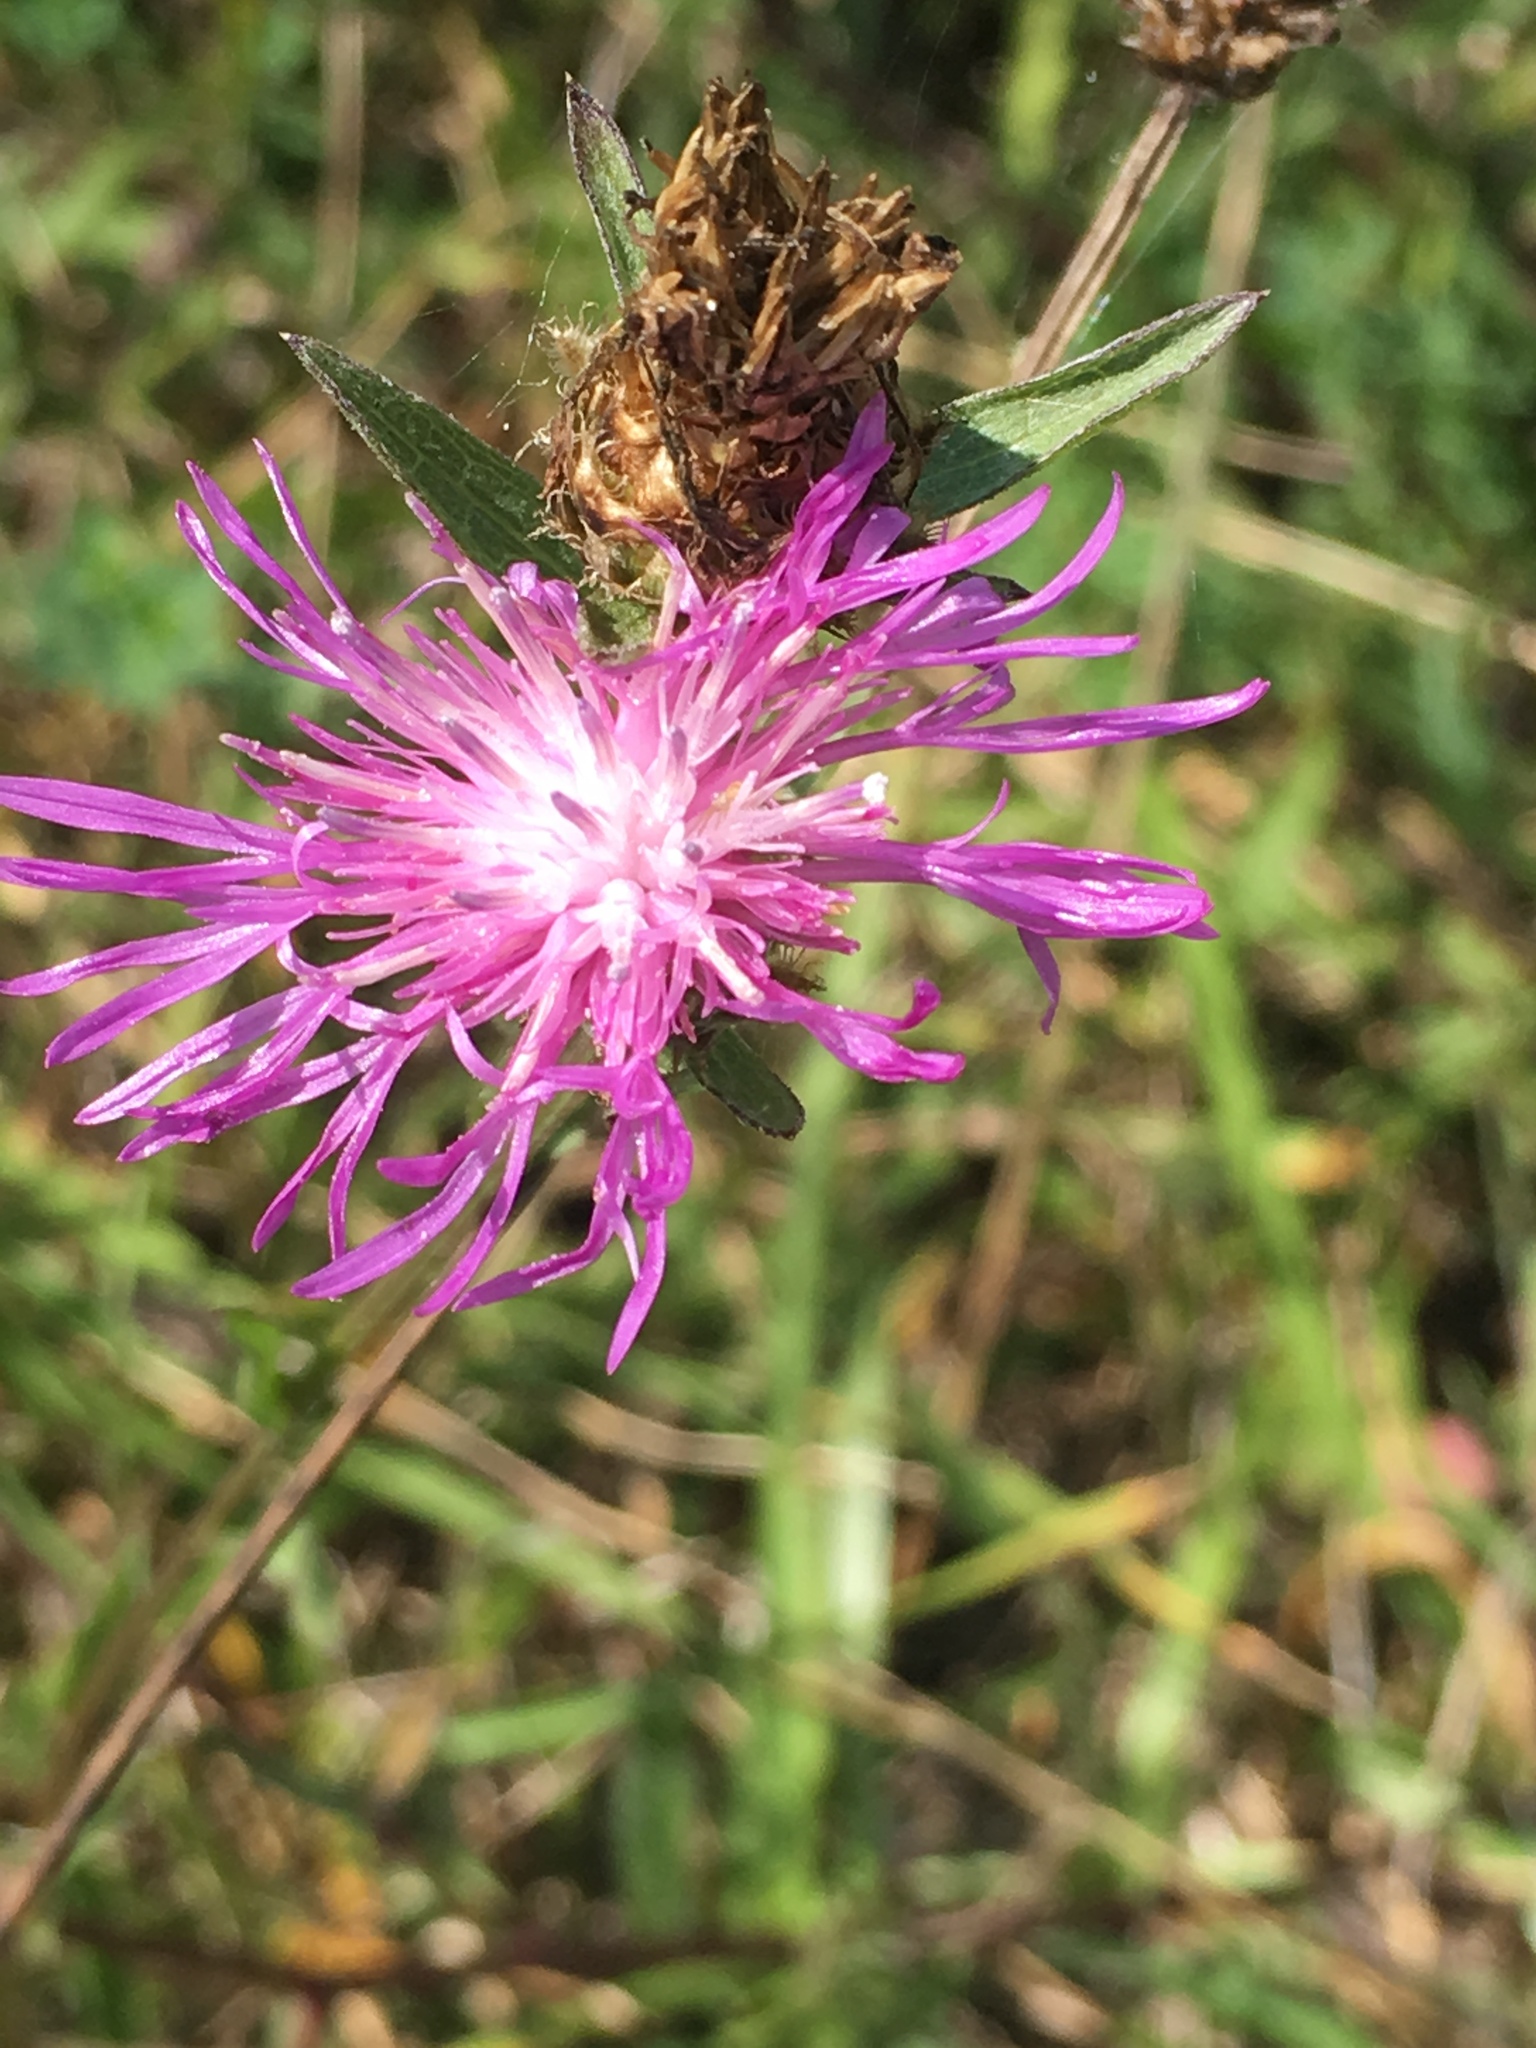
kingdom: Plantae
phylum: Tracheophyta
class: Magnoliopsida
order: Asterales
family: Asteraceae
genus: Centaurea
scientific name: Centaurea stoebe
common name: Spotted knapweed
